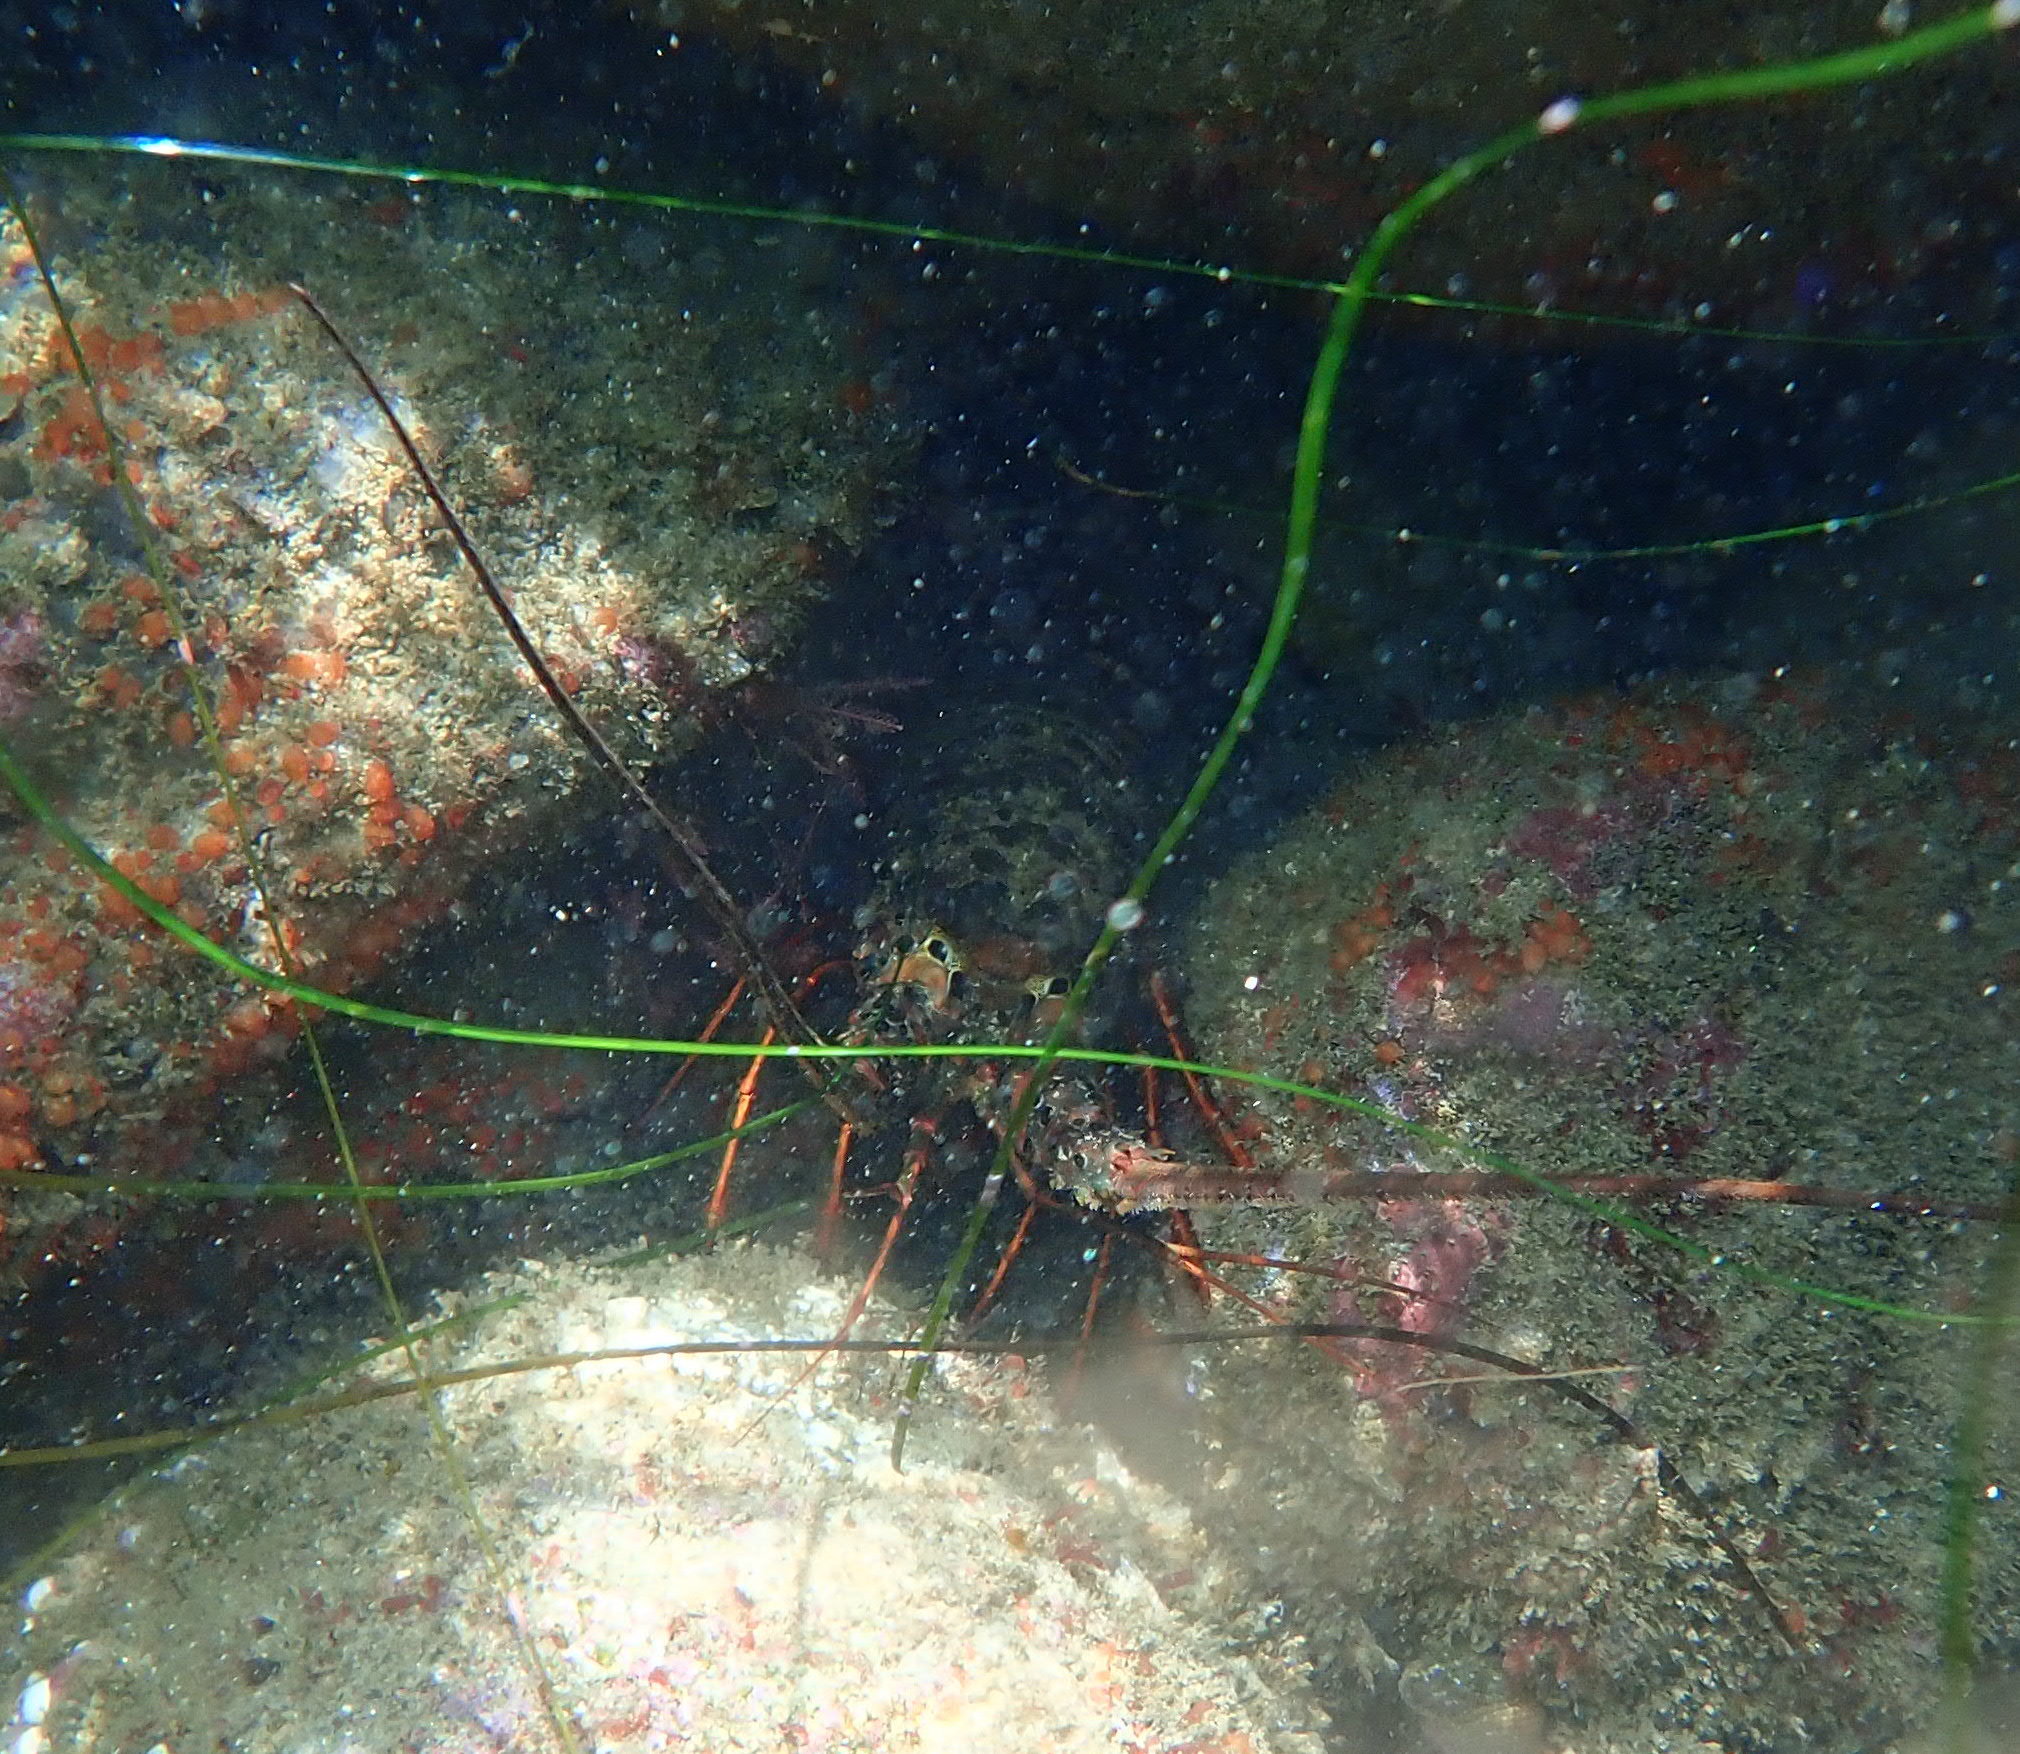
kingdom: Animalia
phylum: Arthropoda
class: Malacostraca
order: Decapoda
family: Palinuridae
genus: Panulirus
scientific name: Panulirus interruptus
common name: California spiny lobster
